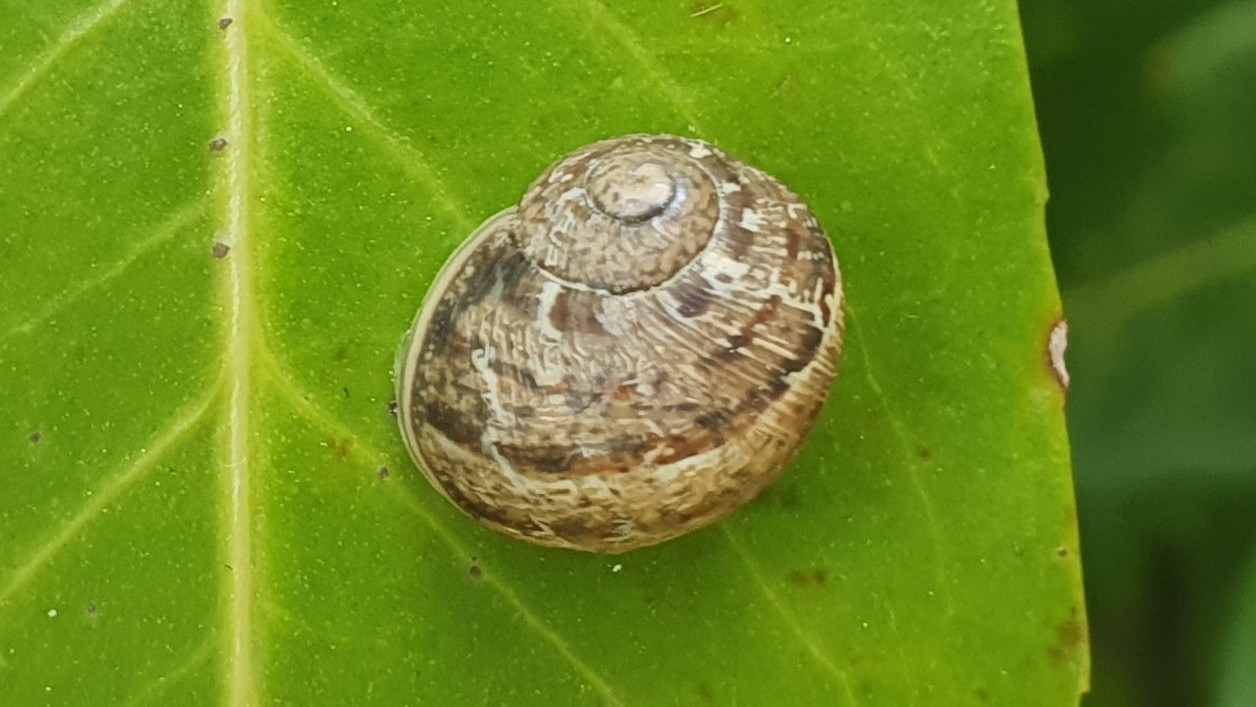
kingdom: Animalia
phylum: Mollusca
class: Gastropoda
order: Stylommatophora
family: Helicidae
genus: Cornu
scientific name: Cornu aspersum
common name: Brown garden snail
